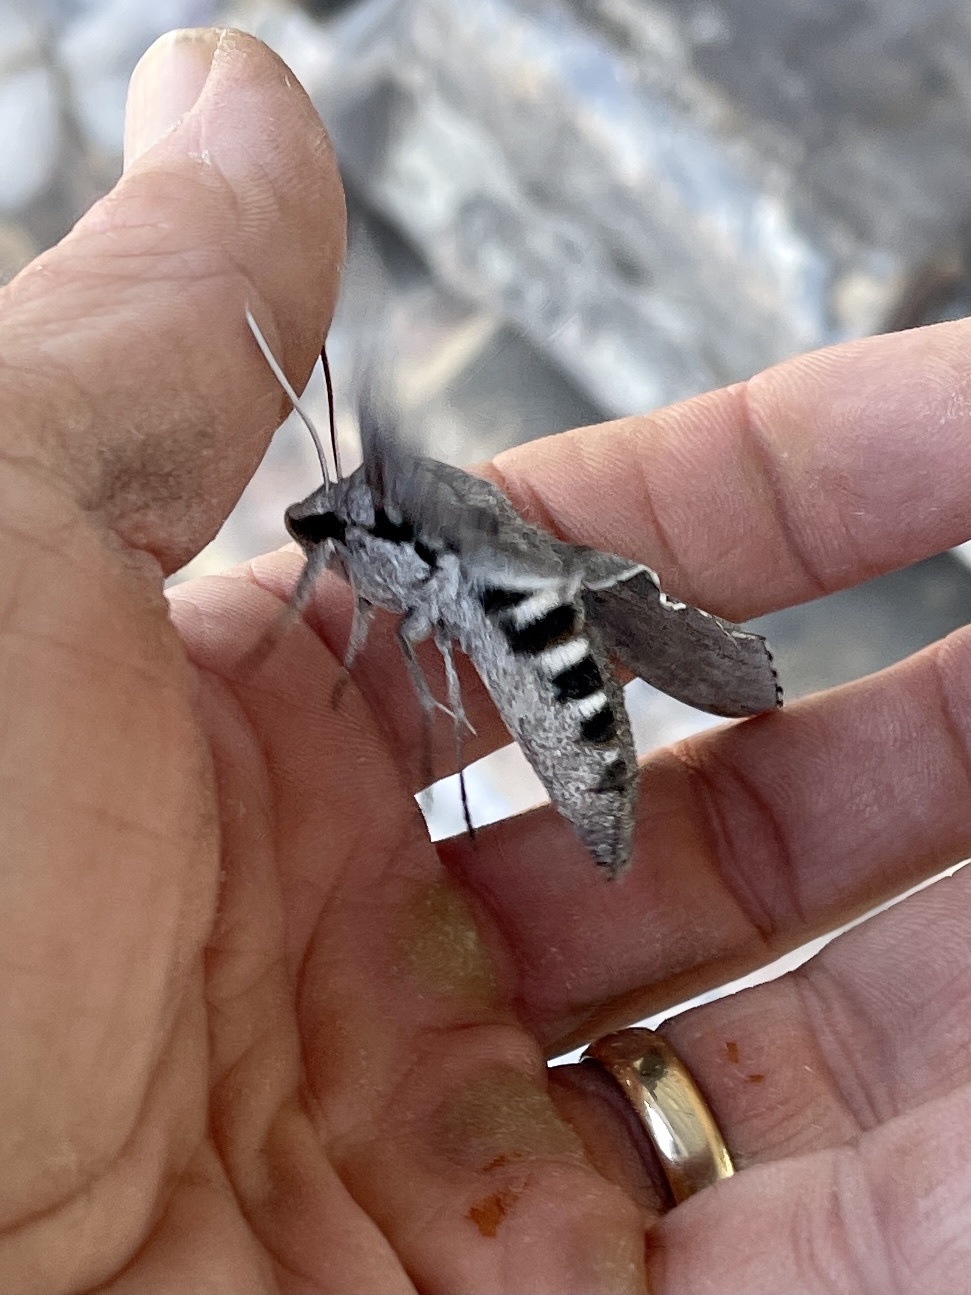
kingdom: Animalia
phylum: Arthropoda
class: Insecta
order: Lepidoptera
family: Sphingidae
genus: Sphinx
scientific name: Sphinx chersis
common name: Great ash sphinx
